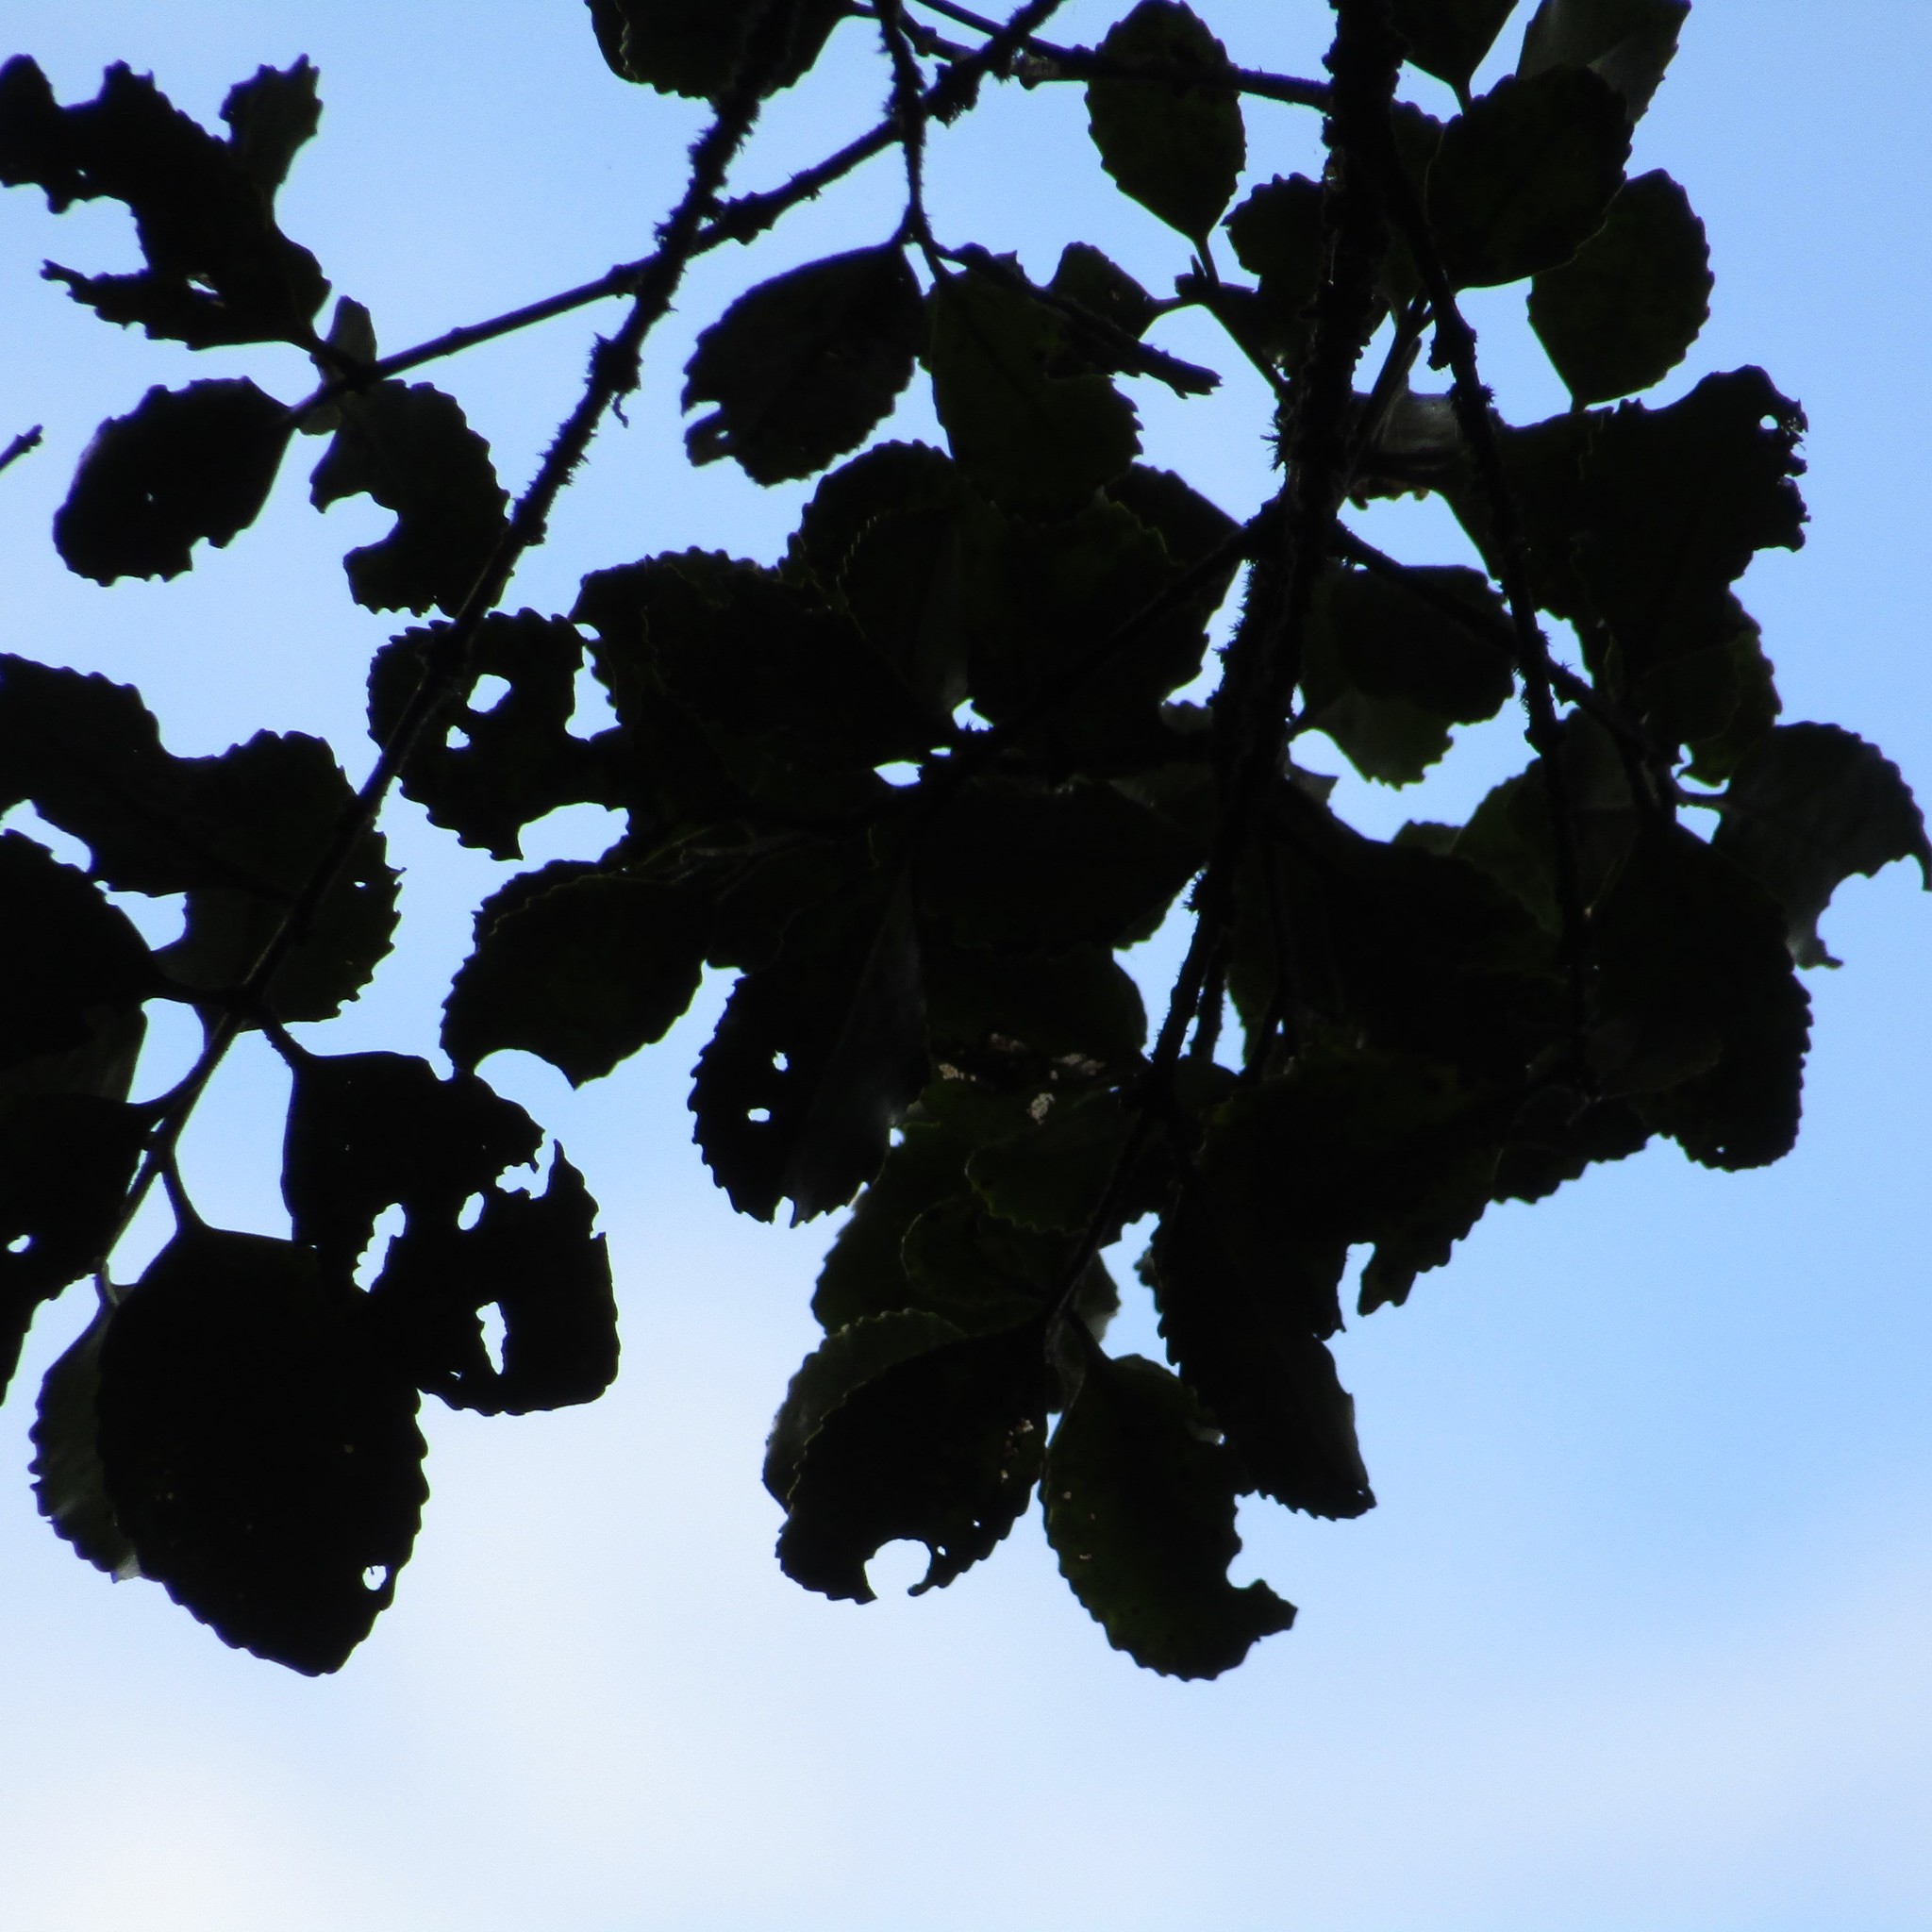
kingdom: Plantae
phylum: Tracheophyta
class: Magnoliopsida
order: Laurales
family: Atherospermataceae
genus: Laurelia
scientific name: Laurelia novae-zelandiae
